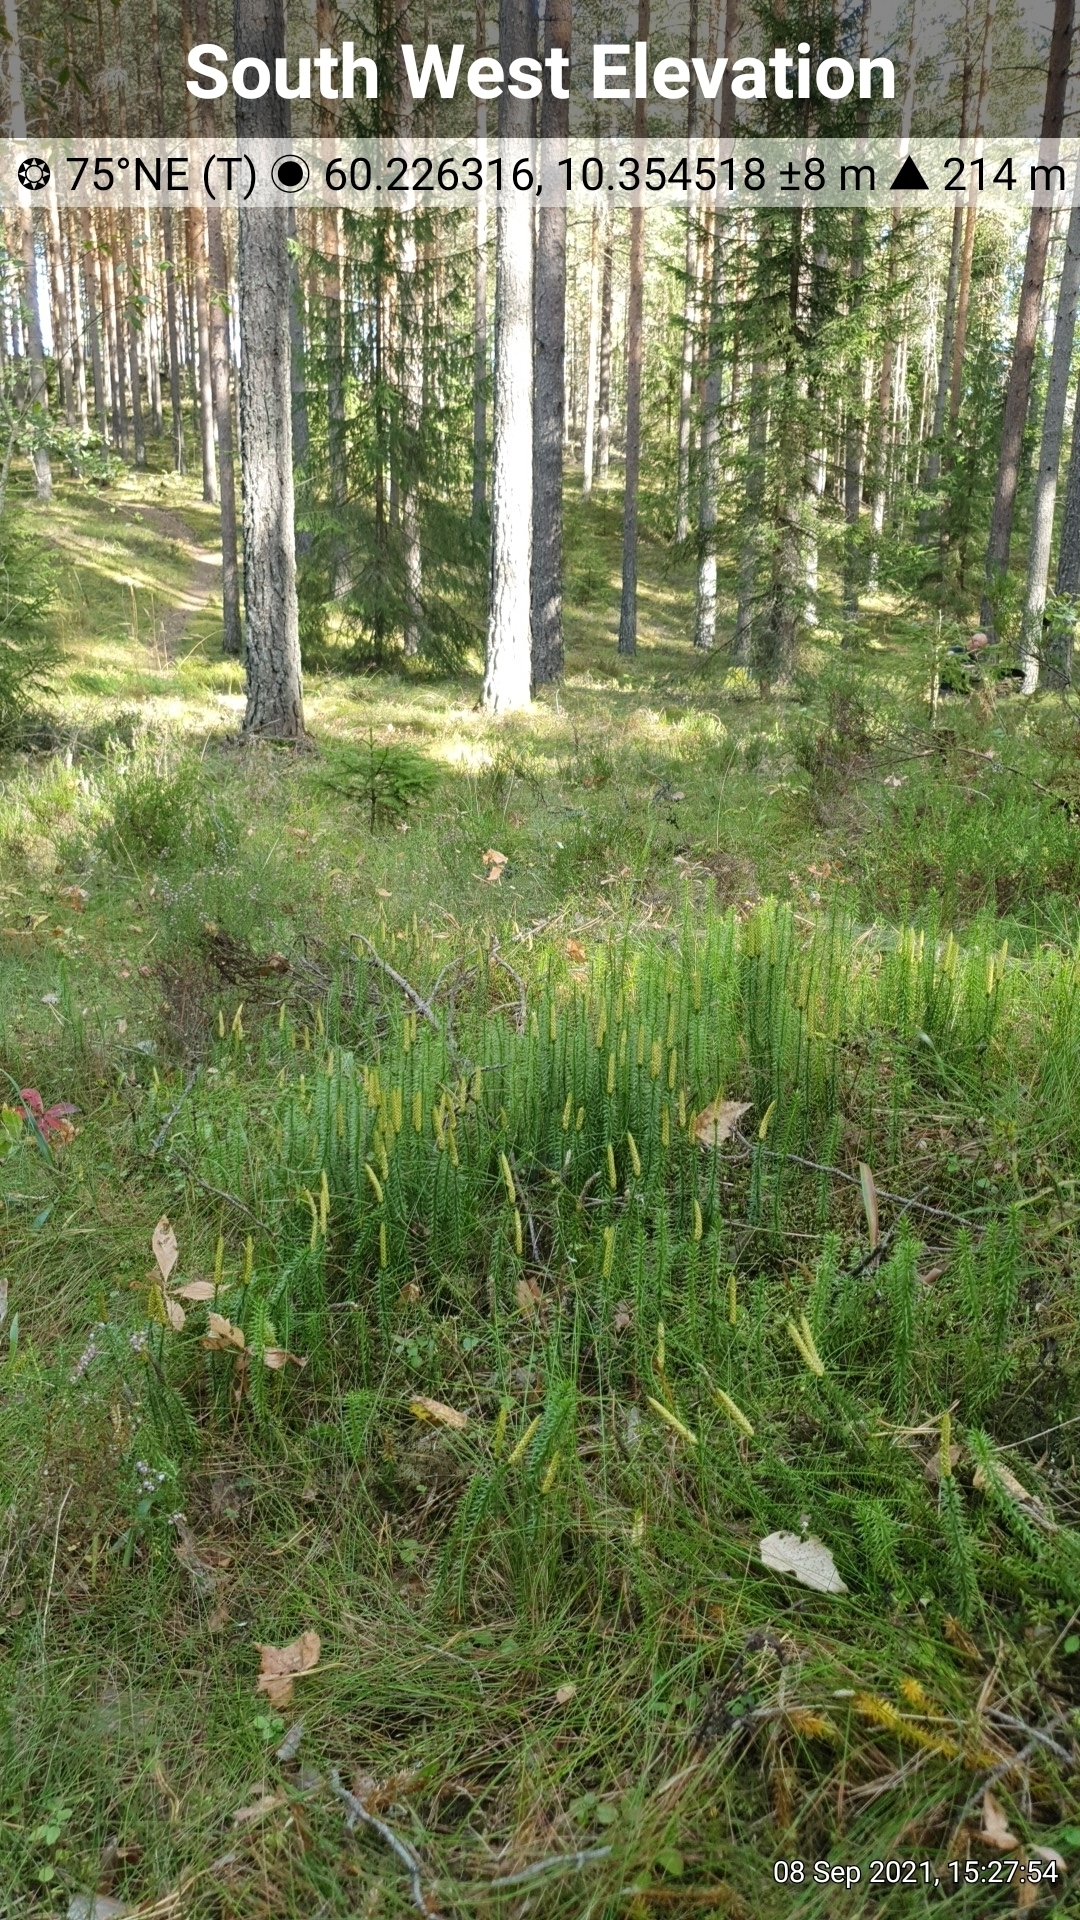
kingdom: Plantae
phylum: Tracheophyta
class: Lycopodiopsida
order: Lycopodiales
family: Lycopodiaceae
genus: Spinulum
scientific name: Spinulum annotinum
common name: Interrupted club-moss
